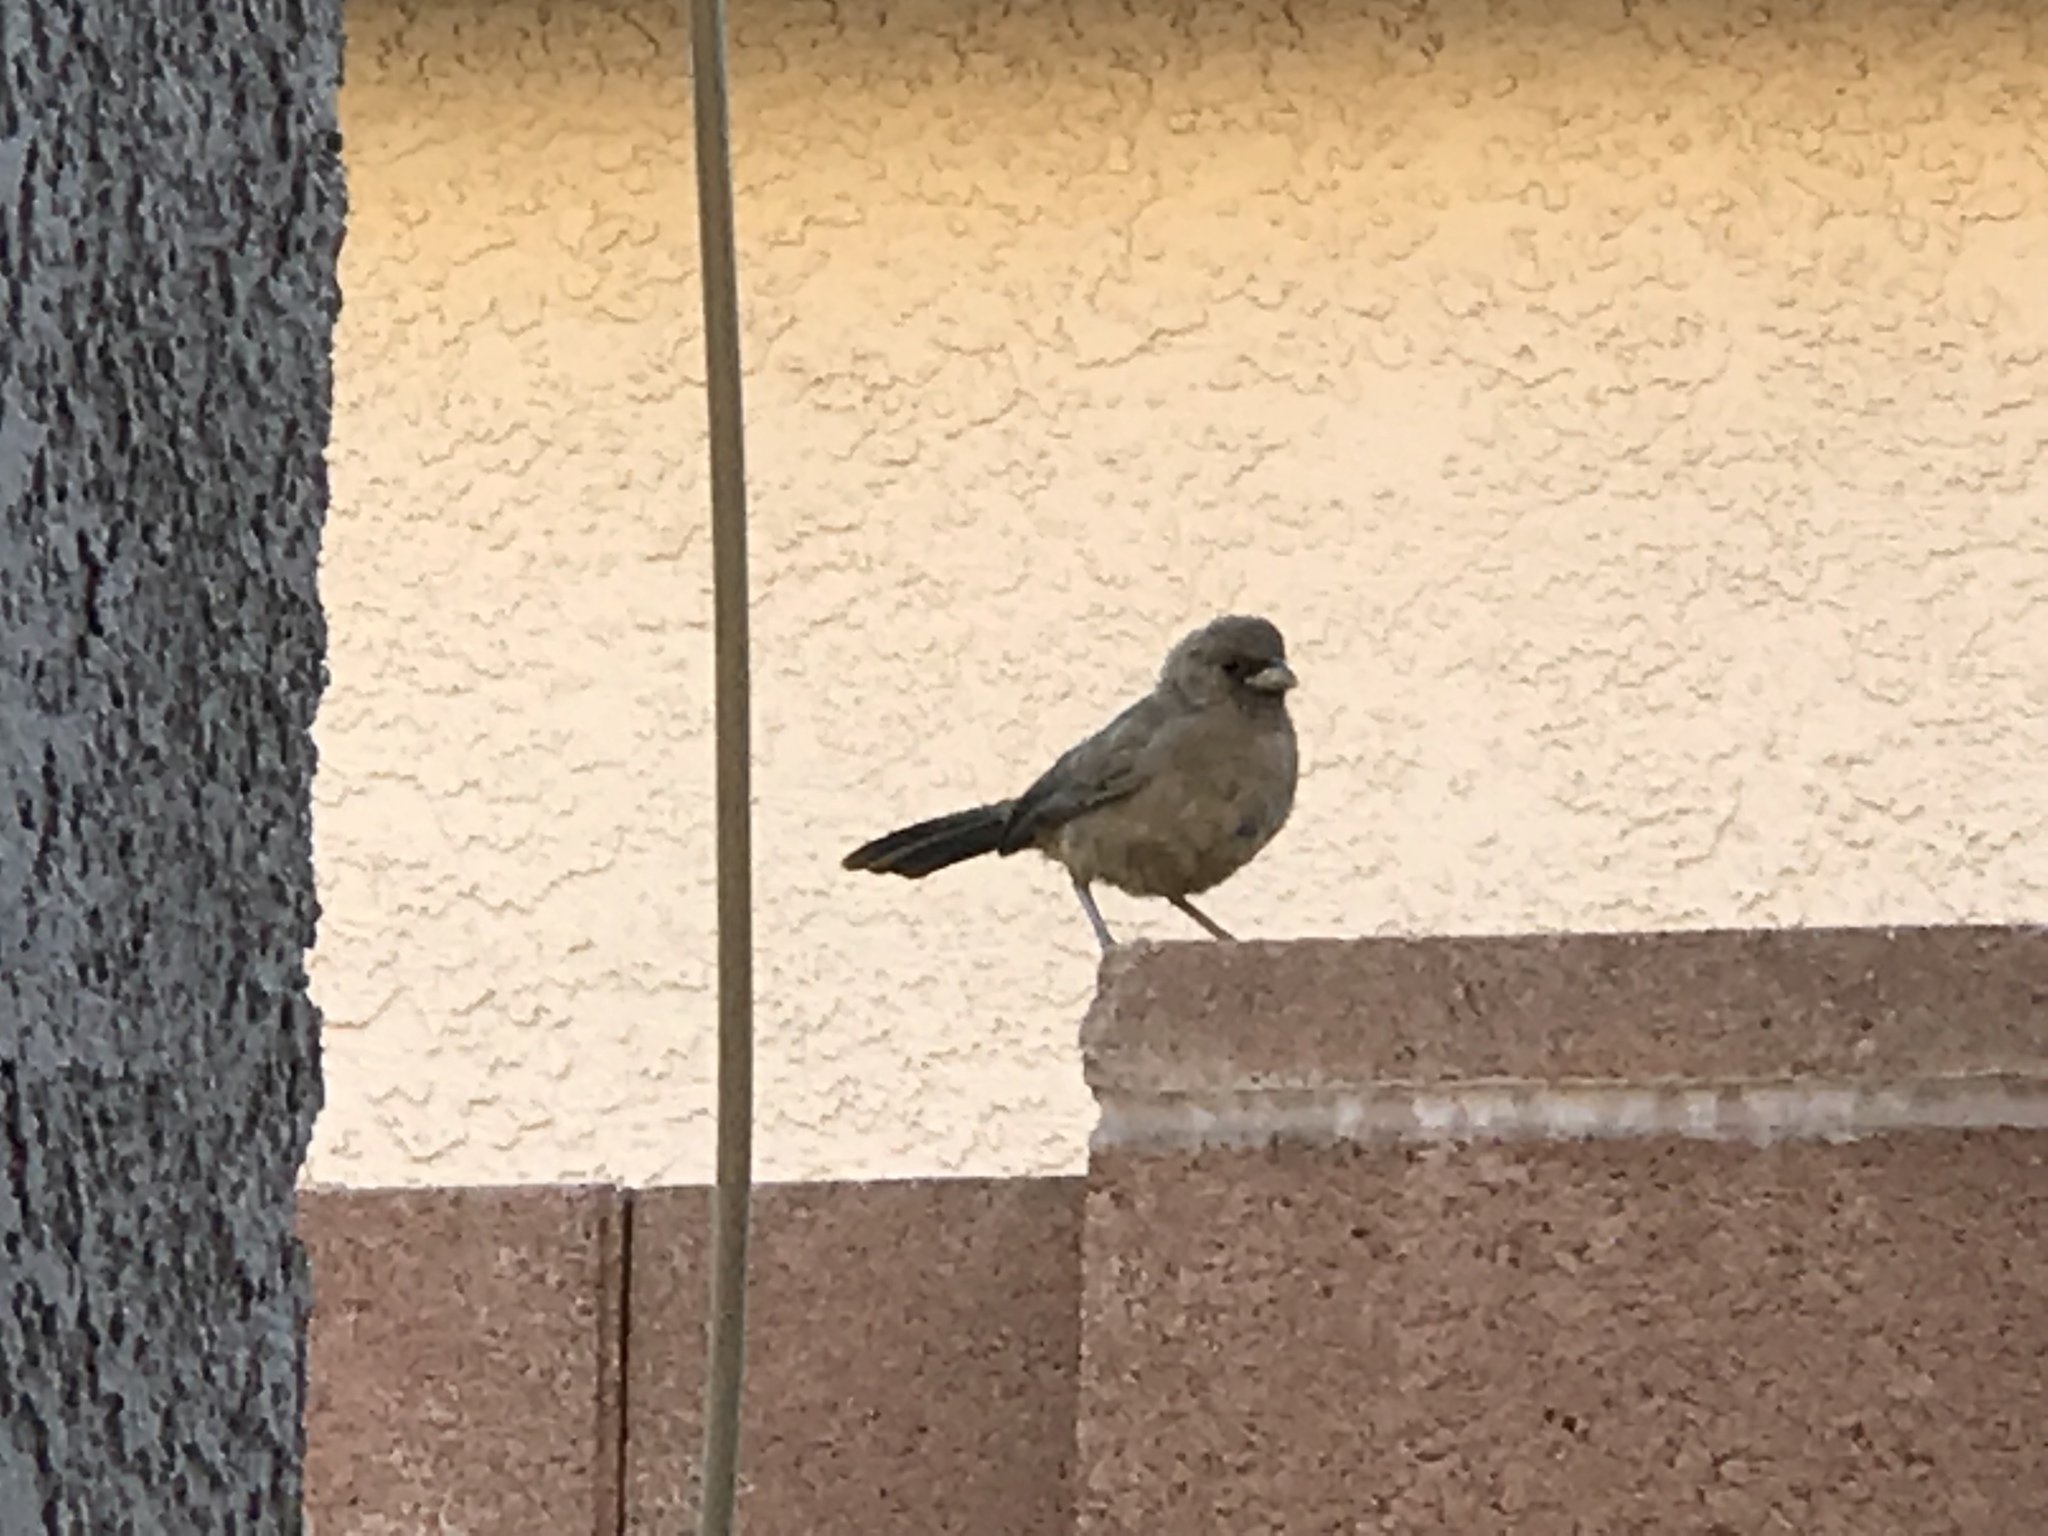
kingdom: Animalia
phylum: Chordata
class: Aves
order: Passeriformes
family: Passerellidae
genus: Melozone
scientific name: Melozone aberti
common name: Abert's towhee
